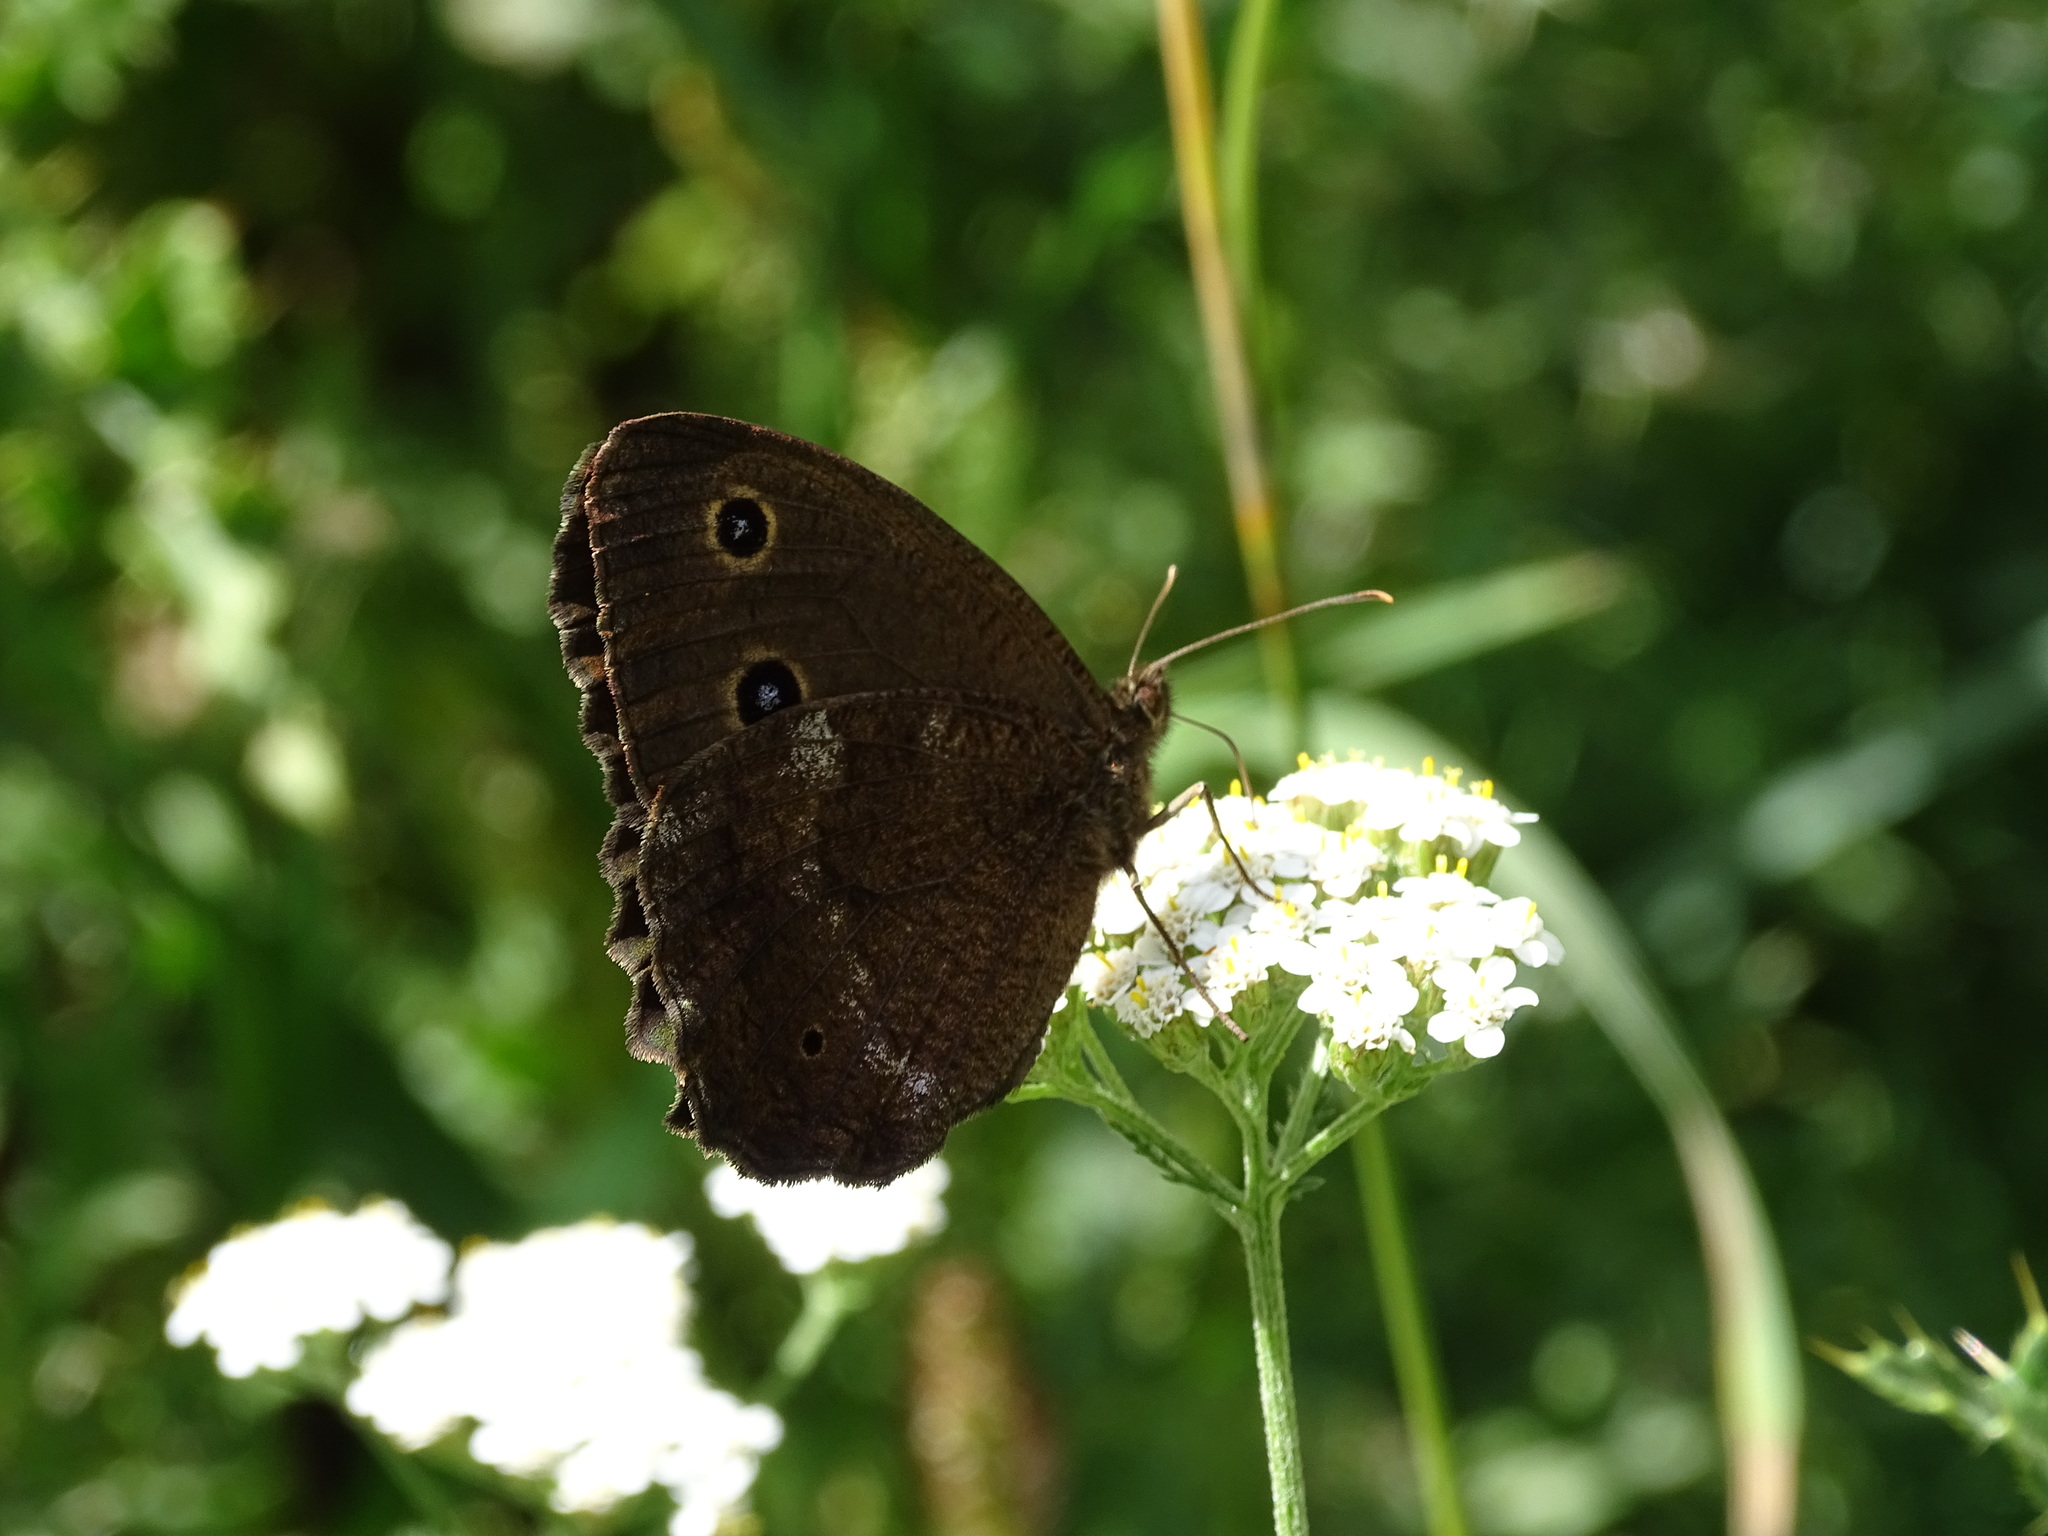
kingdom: Animalia
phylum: Arthropoda
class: Insecta
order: Lepidoptera
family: Nymphalidae
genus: Minois
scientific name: Minois dryas
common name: Dryad
